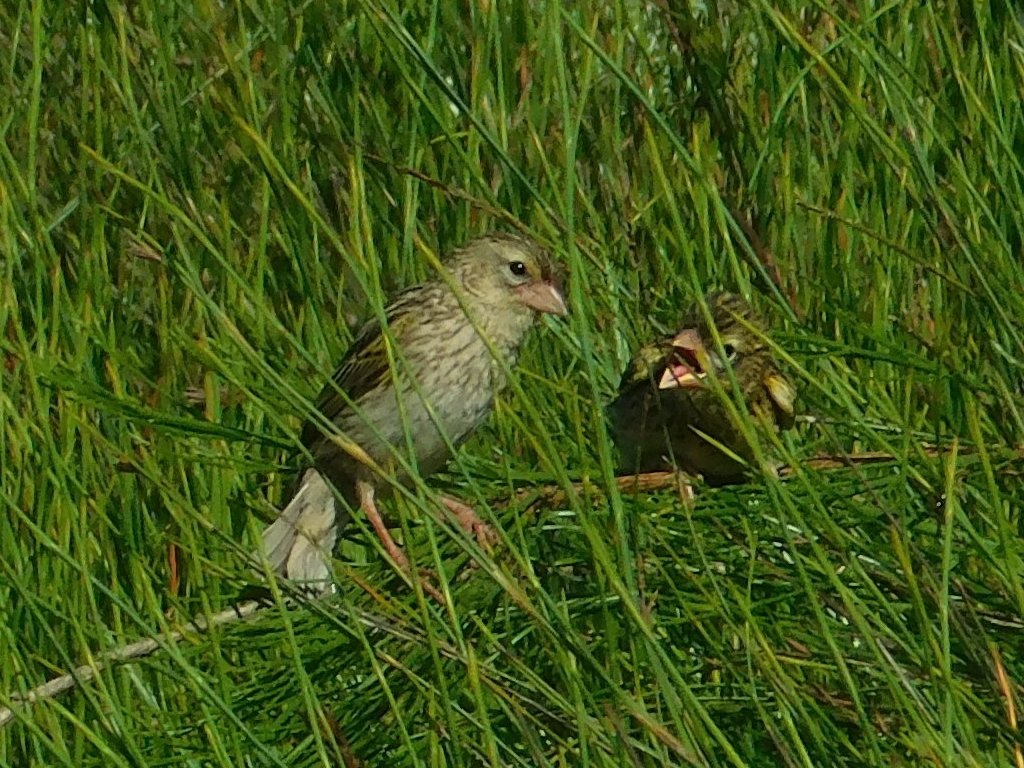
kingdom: Animalia
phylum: Chordata
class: Aves
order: Passeriformes
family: Ploceidae
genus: Euplectes
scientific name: Euplectes capensis
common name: Yellow bishop
